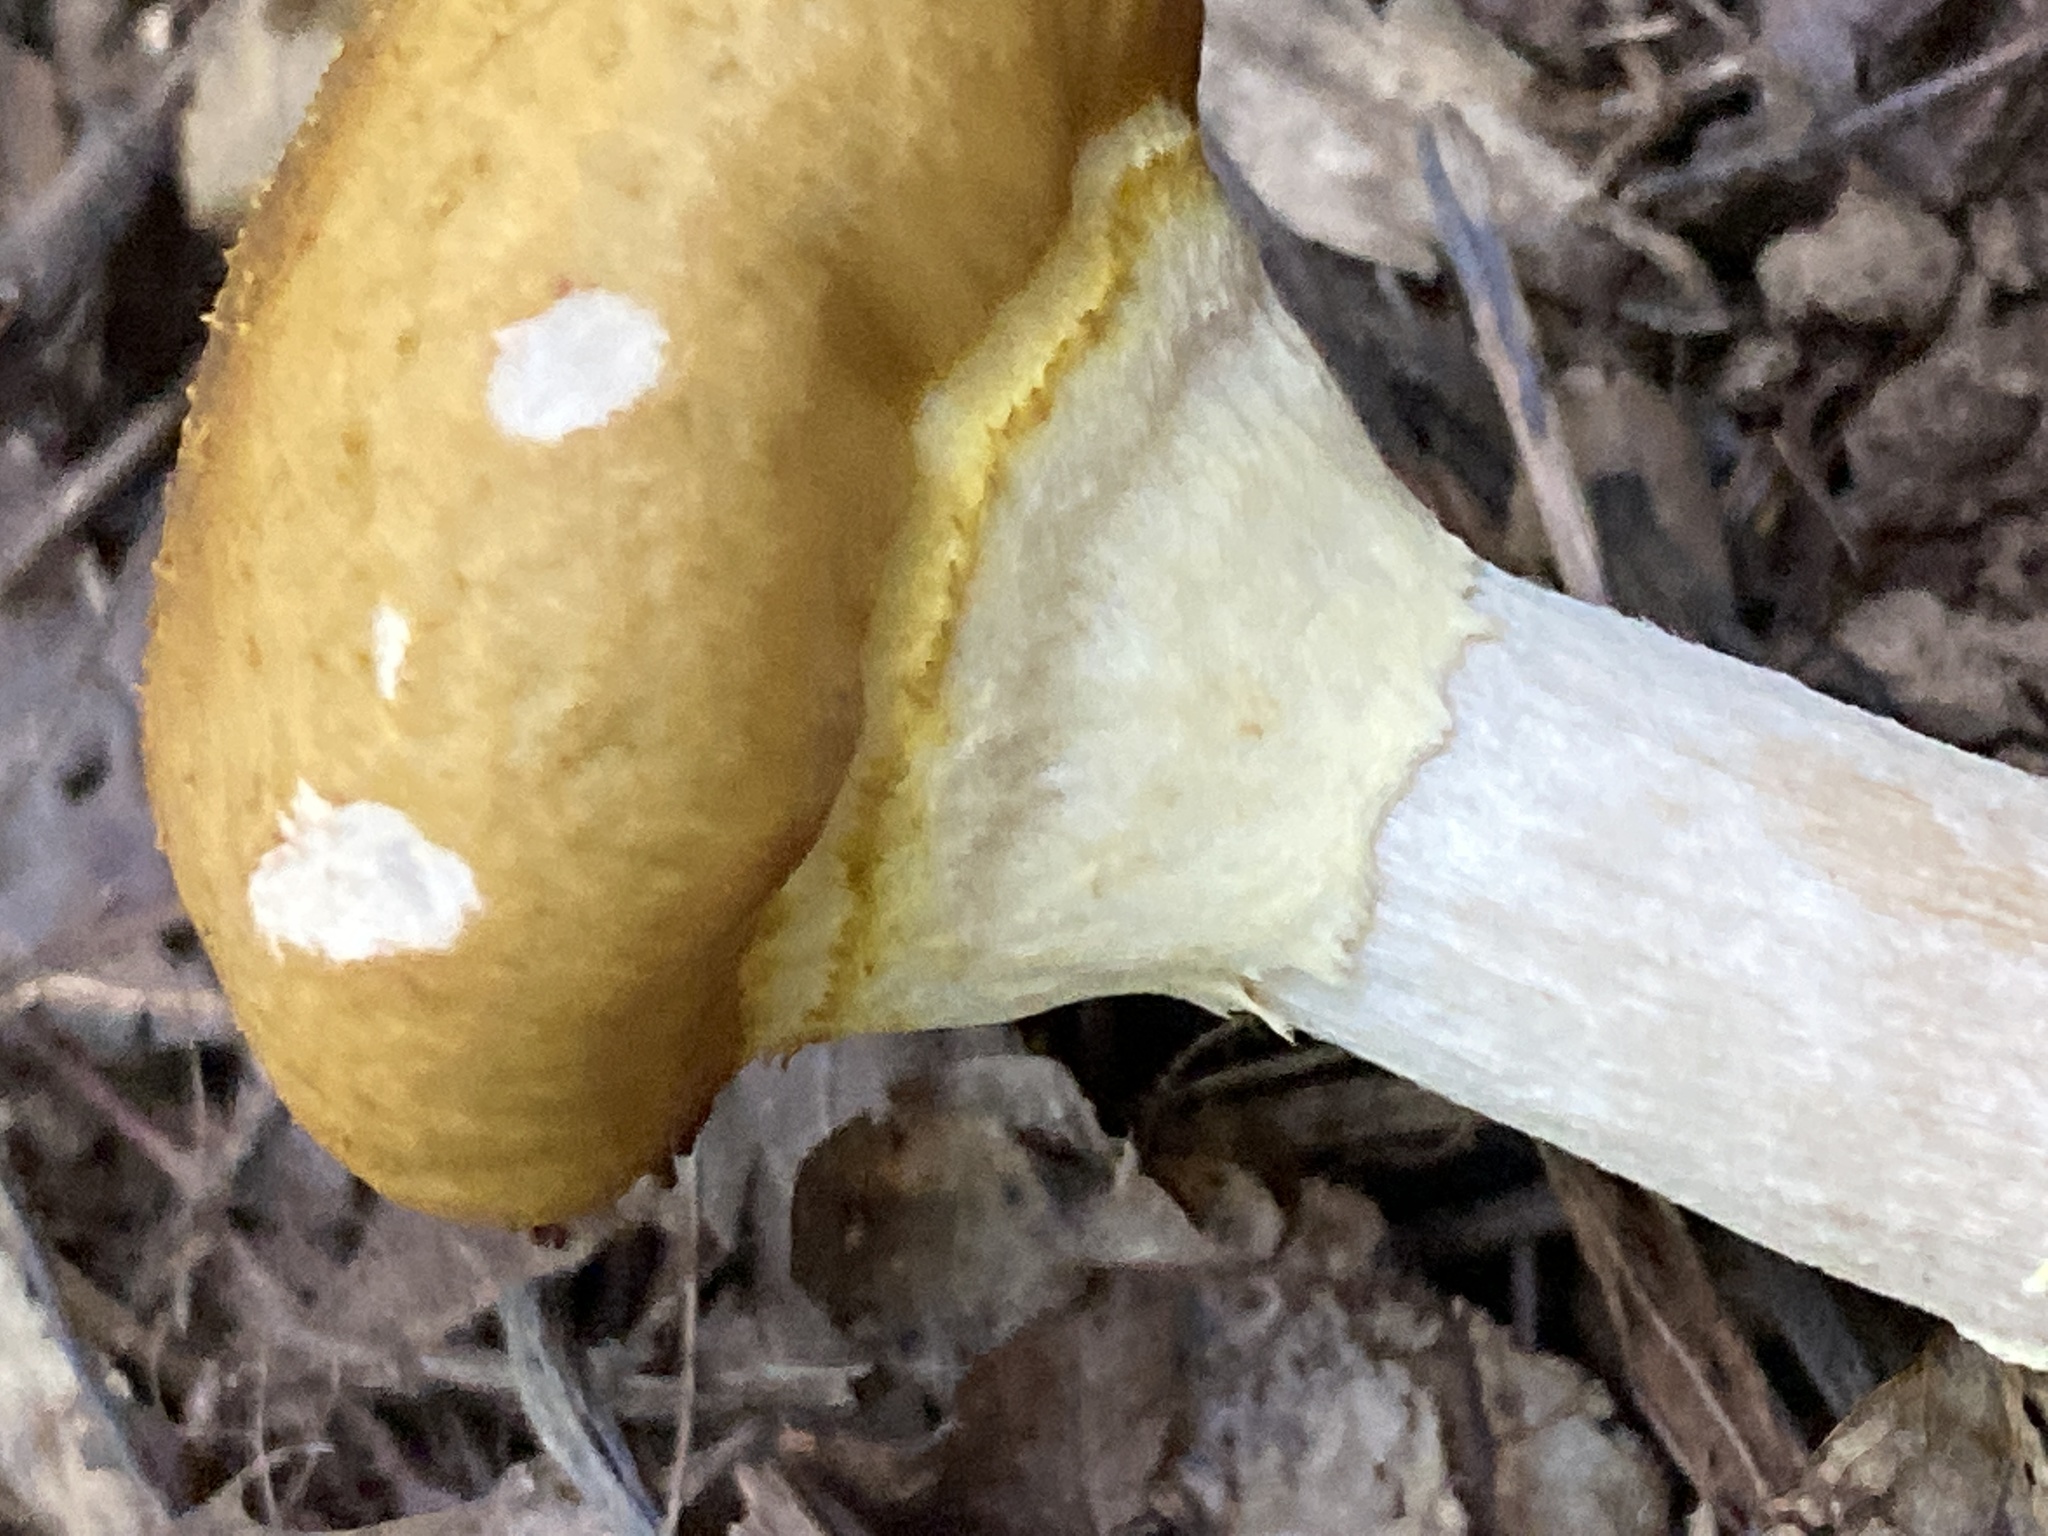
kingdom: Fungi
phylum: Basidiomycota
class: Agaricomycetes
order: Agaricales
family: Physalacriaceae
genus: Armillaria
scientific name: Armillaria mellea
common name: Honey fungus
